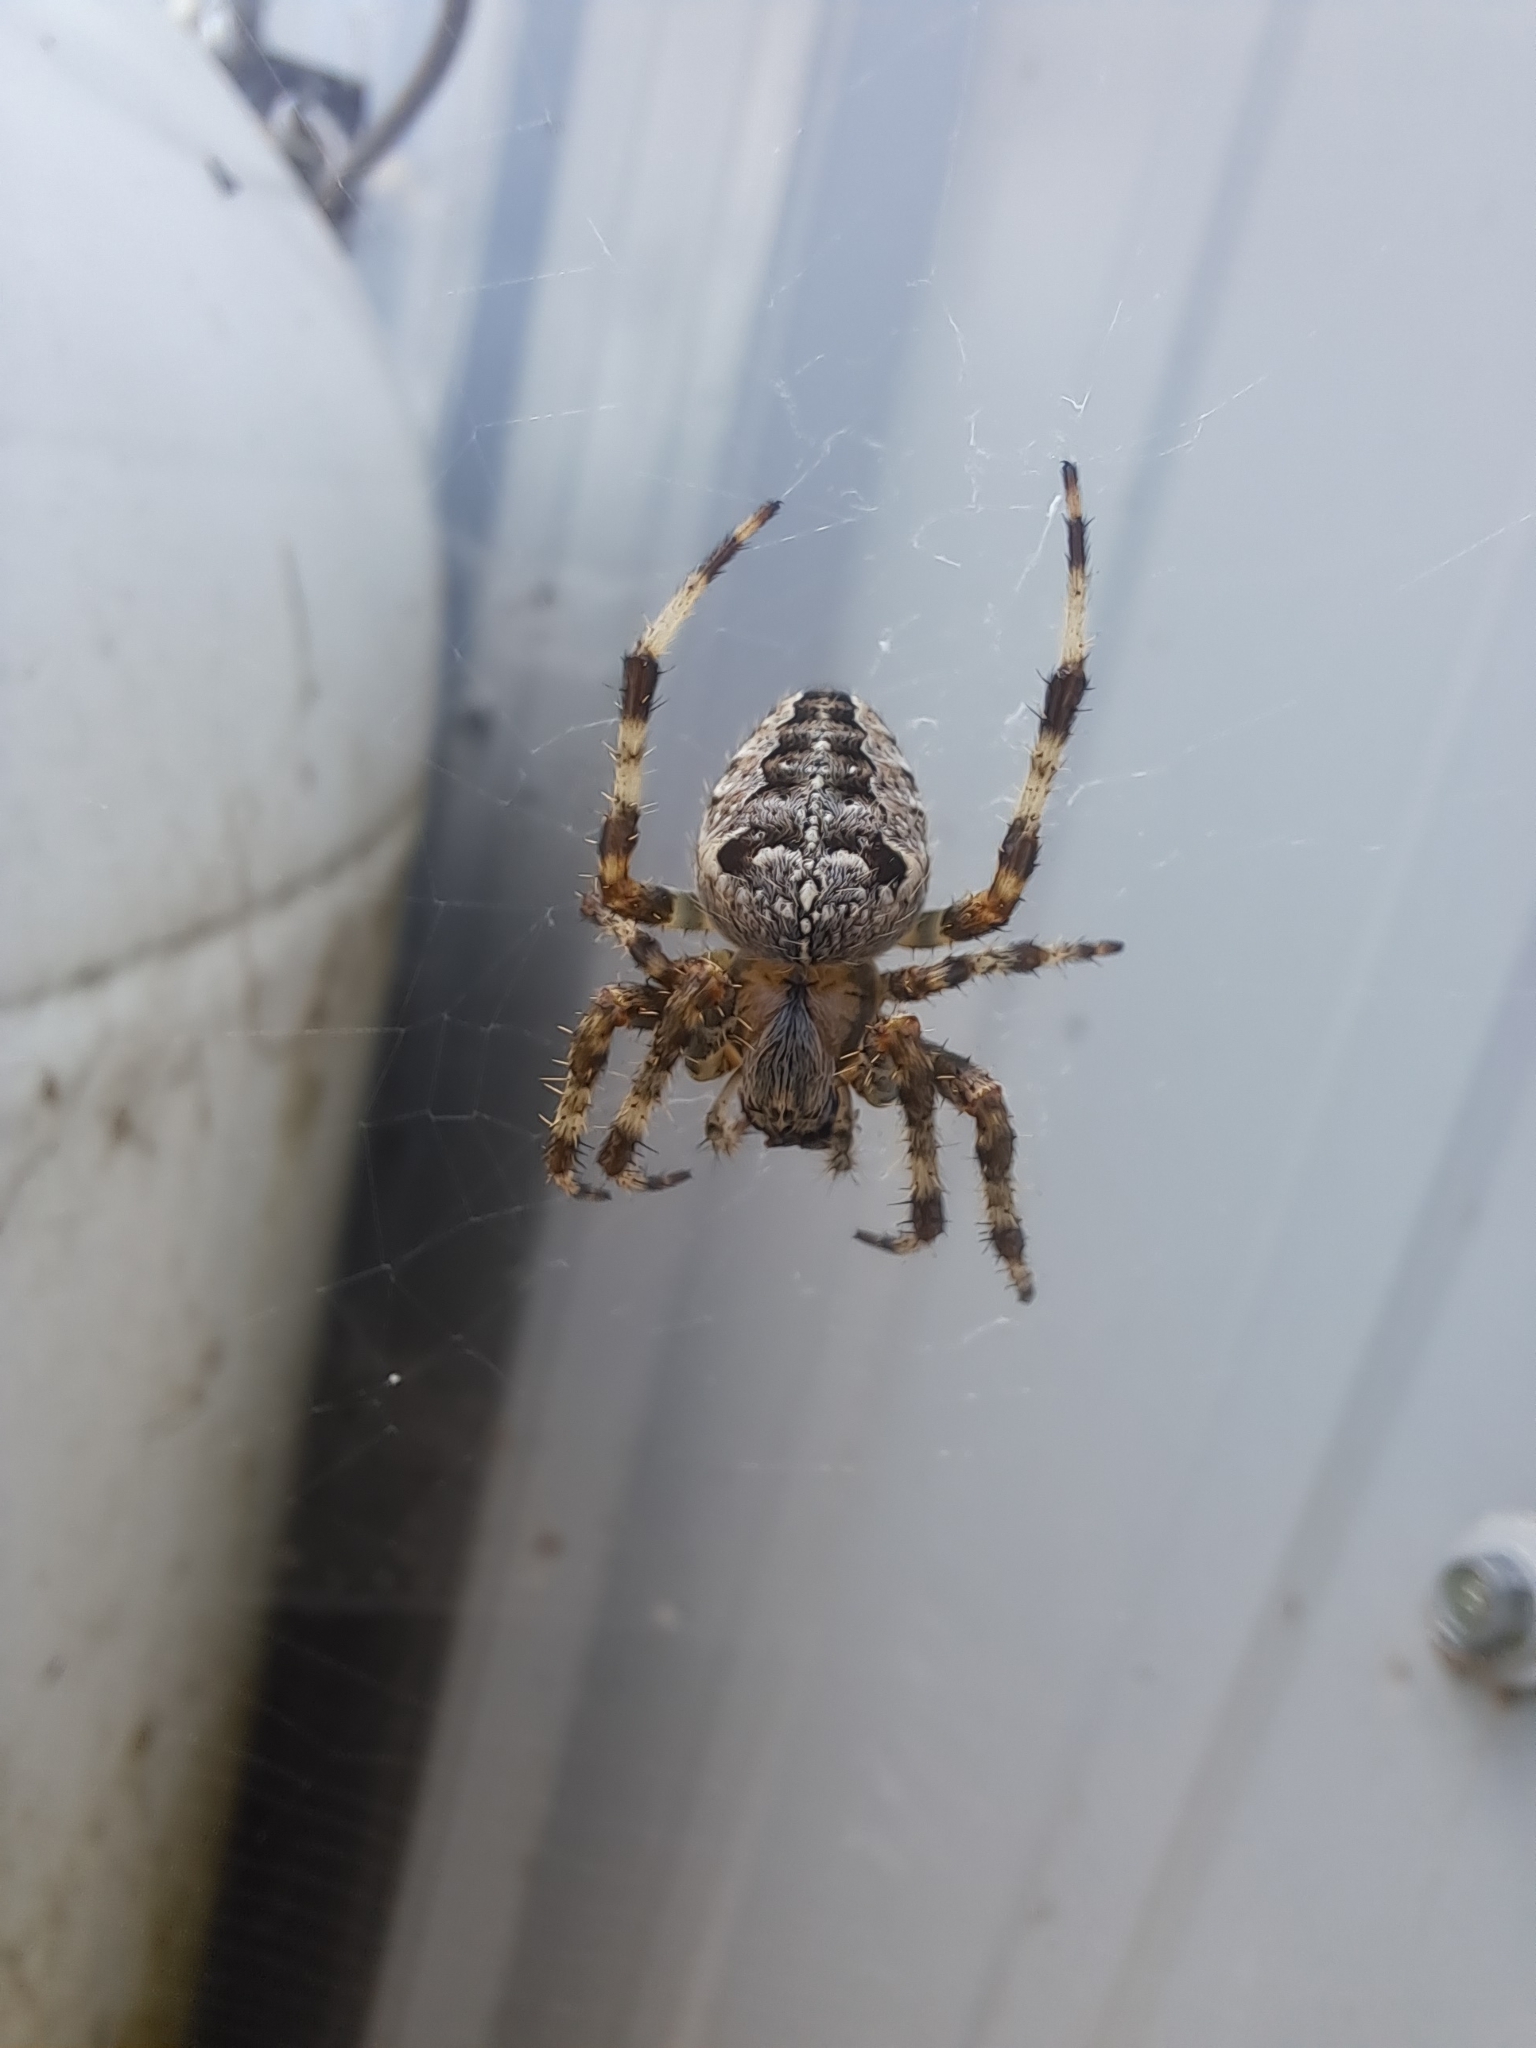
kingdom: Animalia
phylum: Arthropoda
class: Arachnida
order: Araneae
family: Araneidae
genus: Araneus
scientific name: Araneus diadematus
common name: Cross orbweaver
